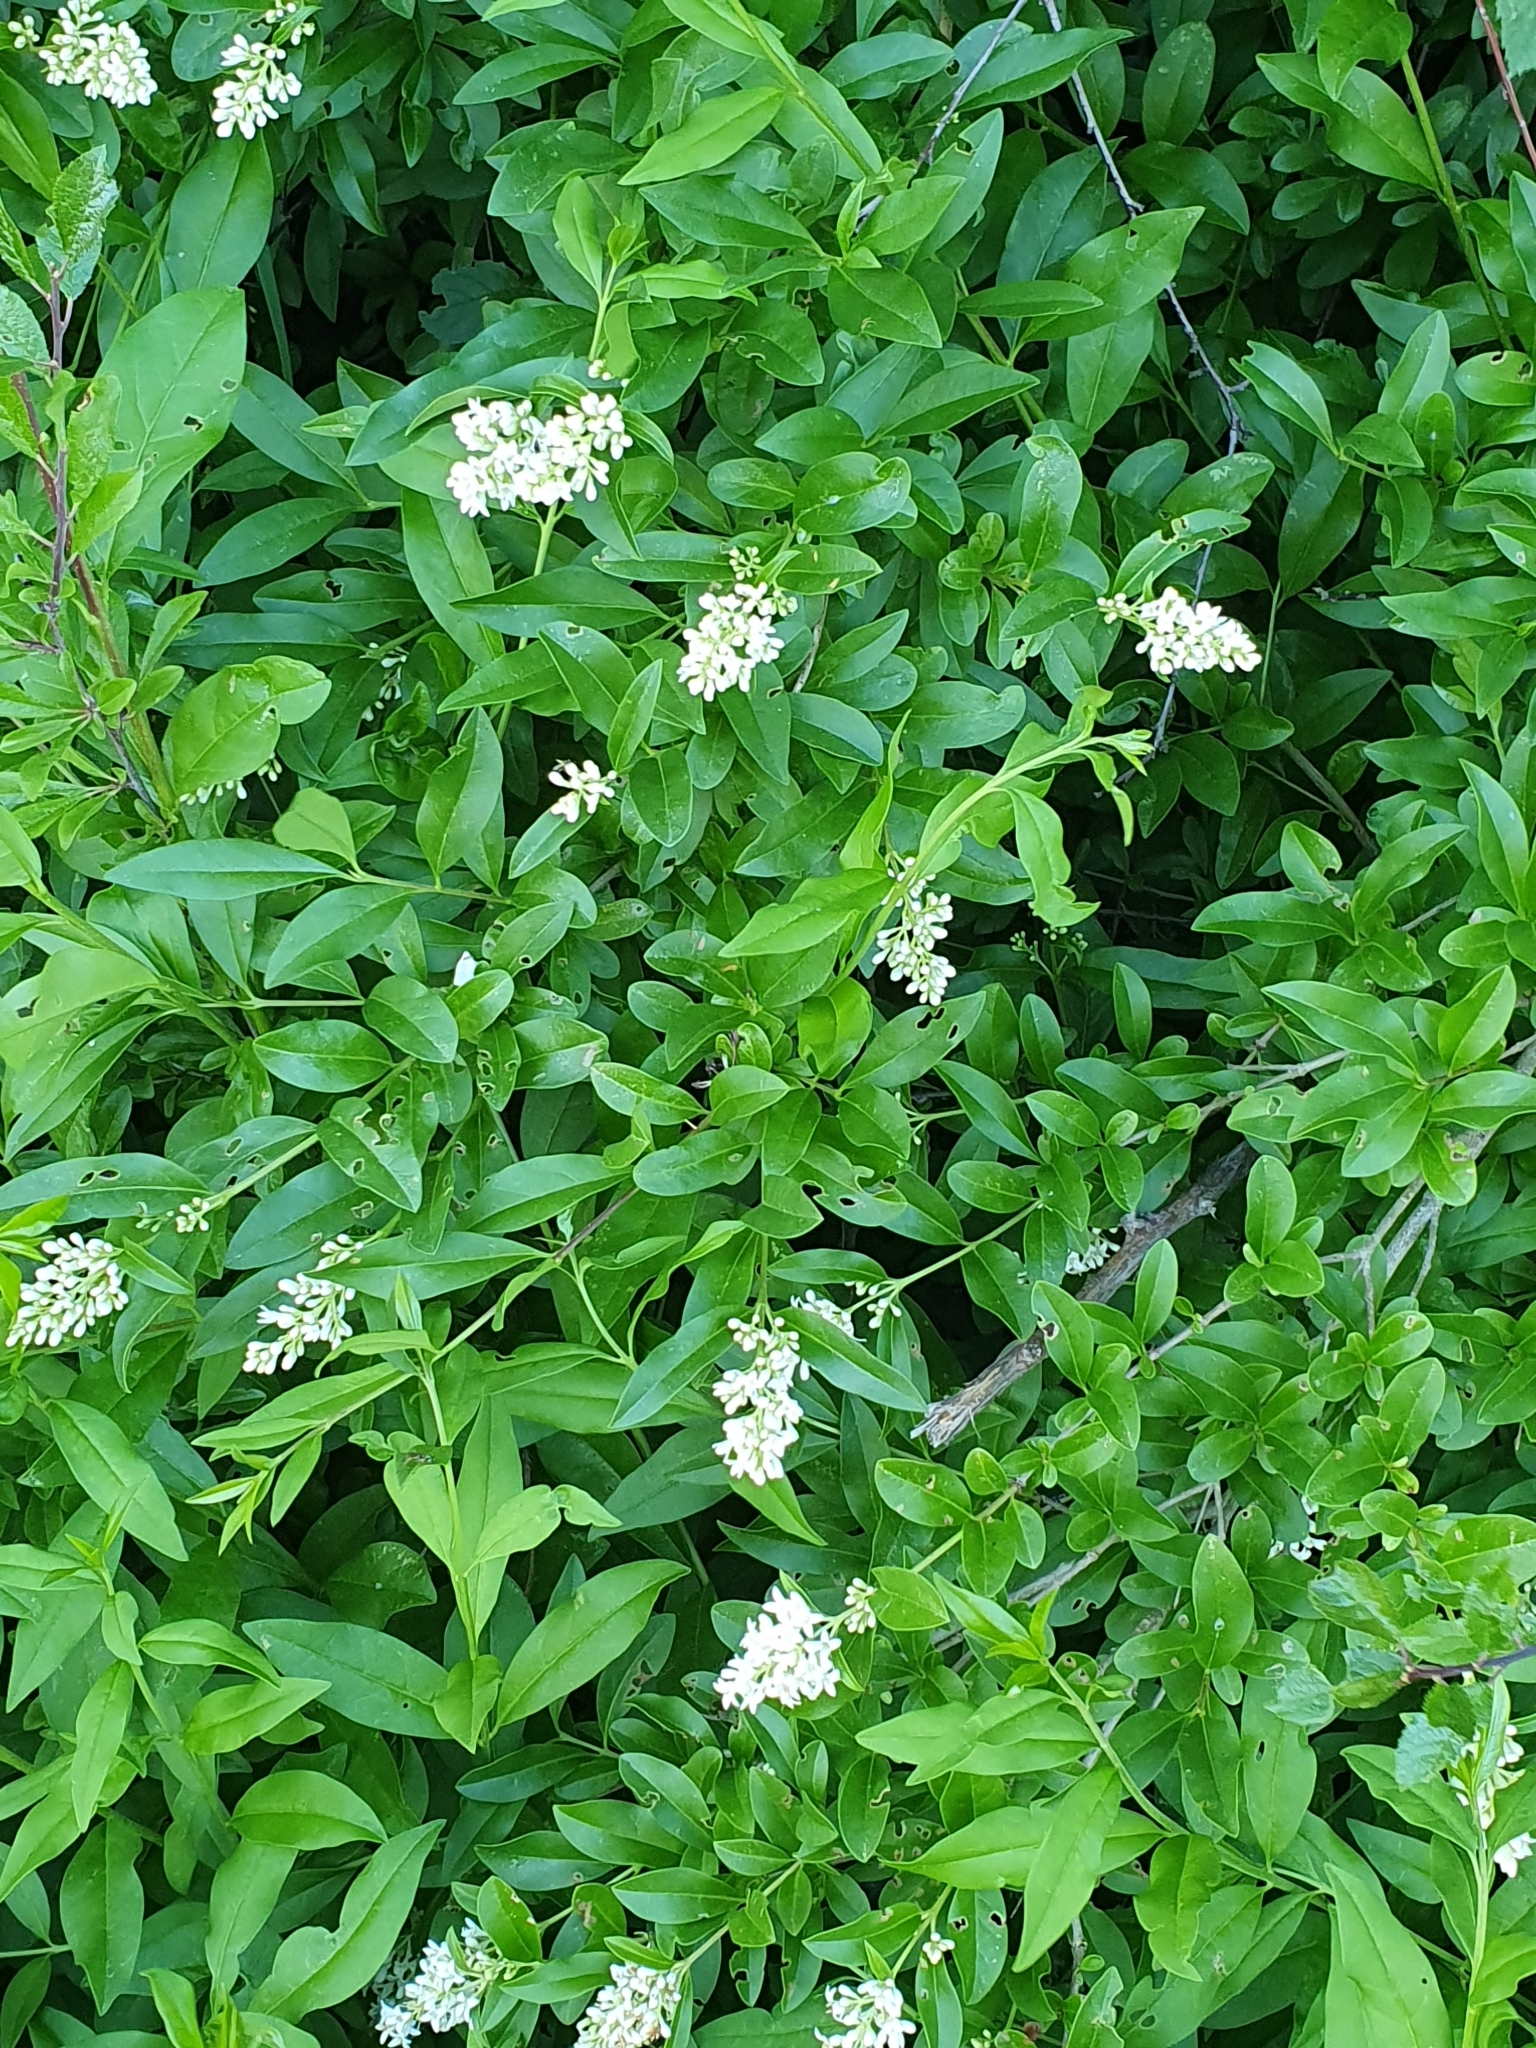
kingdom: Plantae
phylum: Tracheophyta
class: Magnoliopsida
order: Lamiales
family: Oleaceae
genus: Ligustrum
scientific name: Ligustrum vulgare
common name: Wild privet
